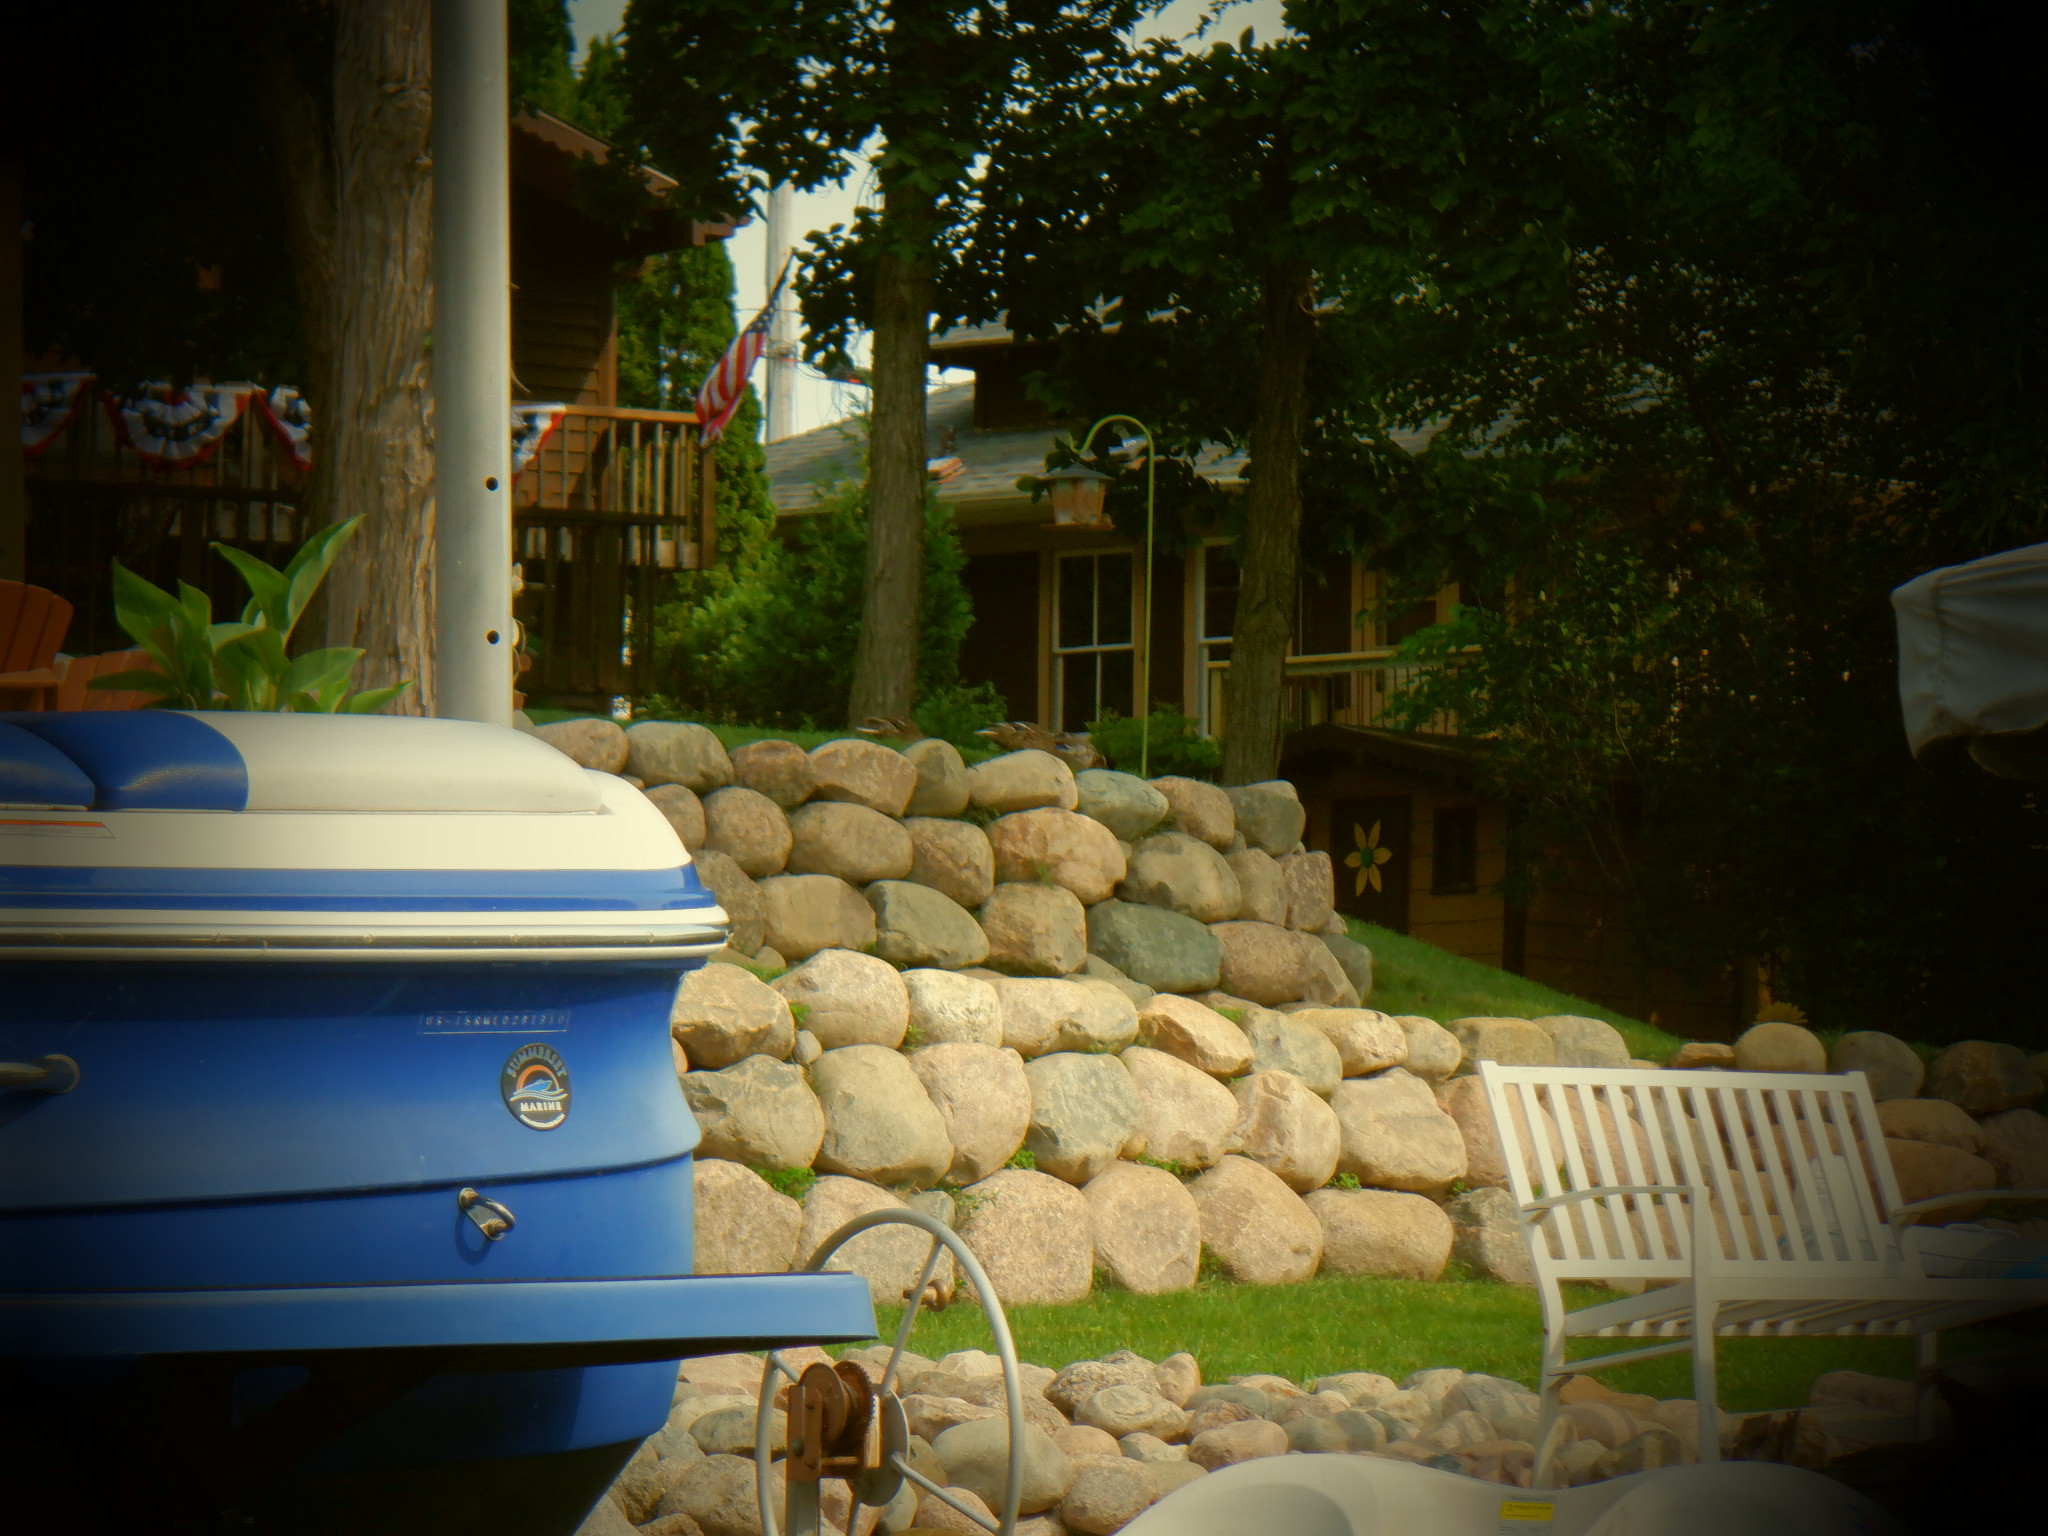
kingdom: Animalia
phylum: Chordata
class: Aves
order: Anseriformes
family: Anatidae
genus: Anas
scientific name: Anas platyrhynchos
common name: Mallard
